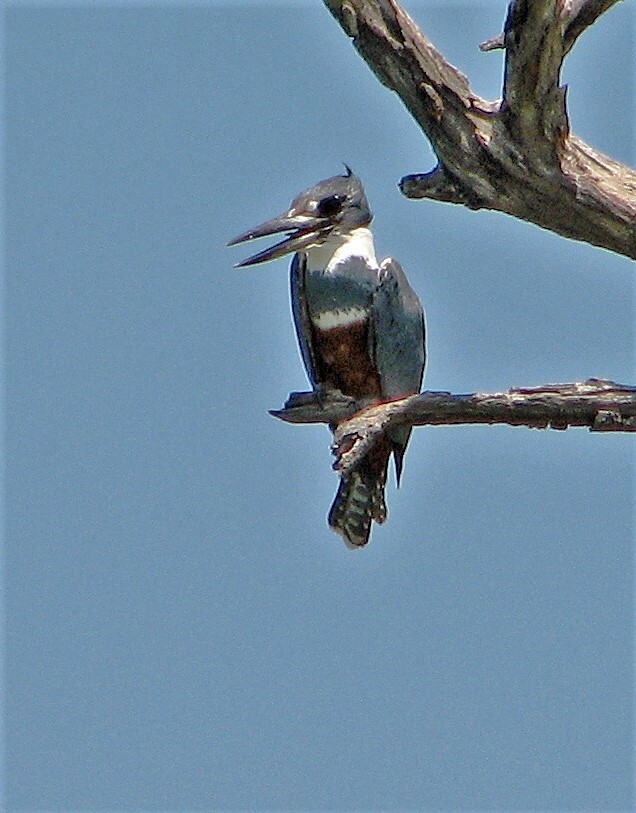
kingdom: Animalia
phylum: Chordata
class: Aves
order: Coraciiformes
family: Alcedinidae
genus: Megaceryle
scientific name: Megaceryle torquata
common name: Ringed kingfisher
